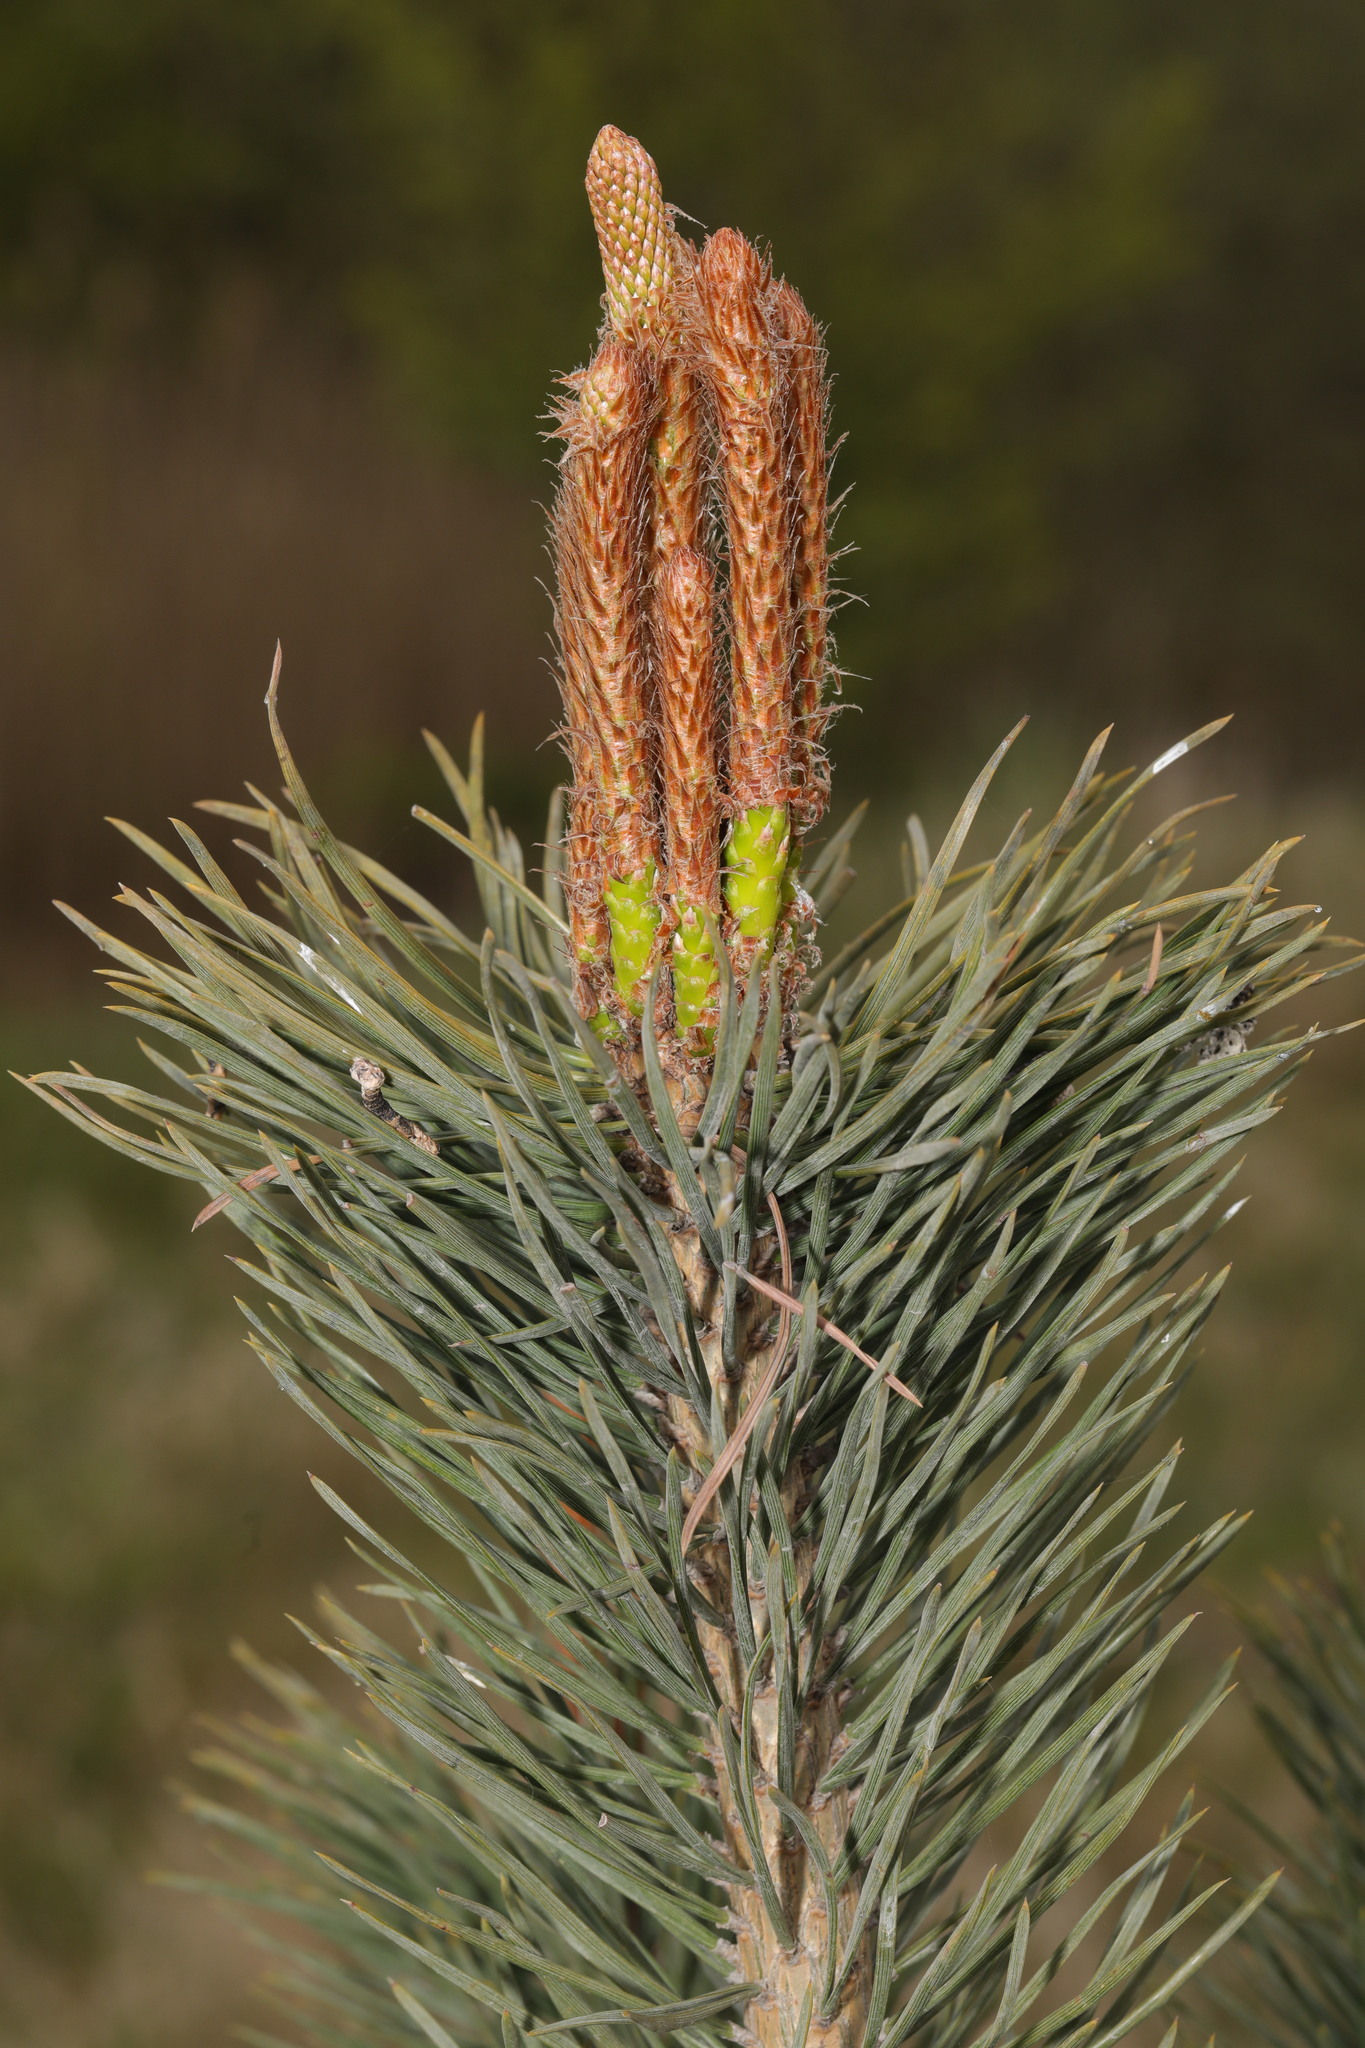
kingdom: Plantae
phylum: Tracheophyta
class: Pinopsida
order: Pinales
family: Pinaceae
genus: Pinus
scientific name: Pinus sylvestris
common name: Scots pine
